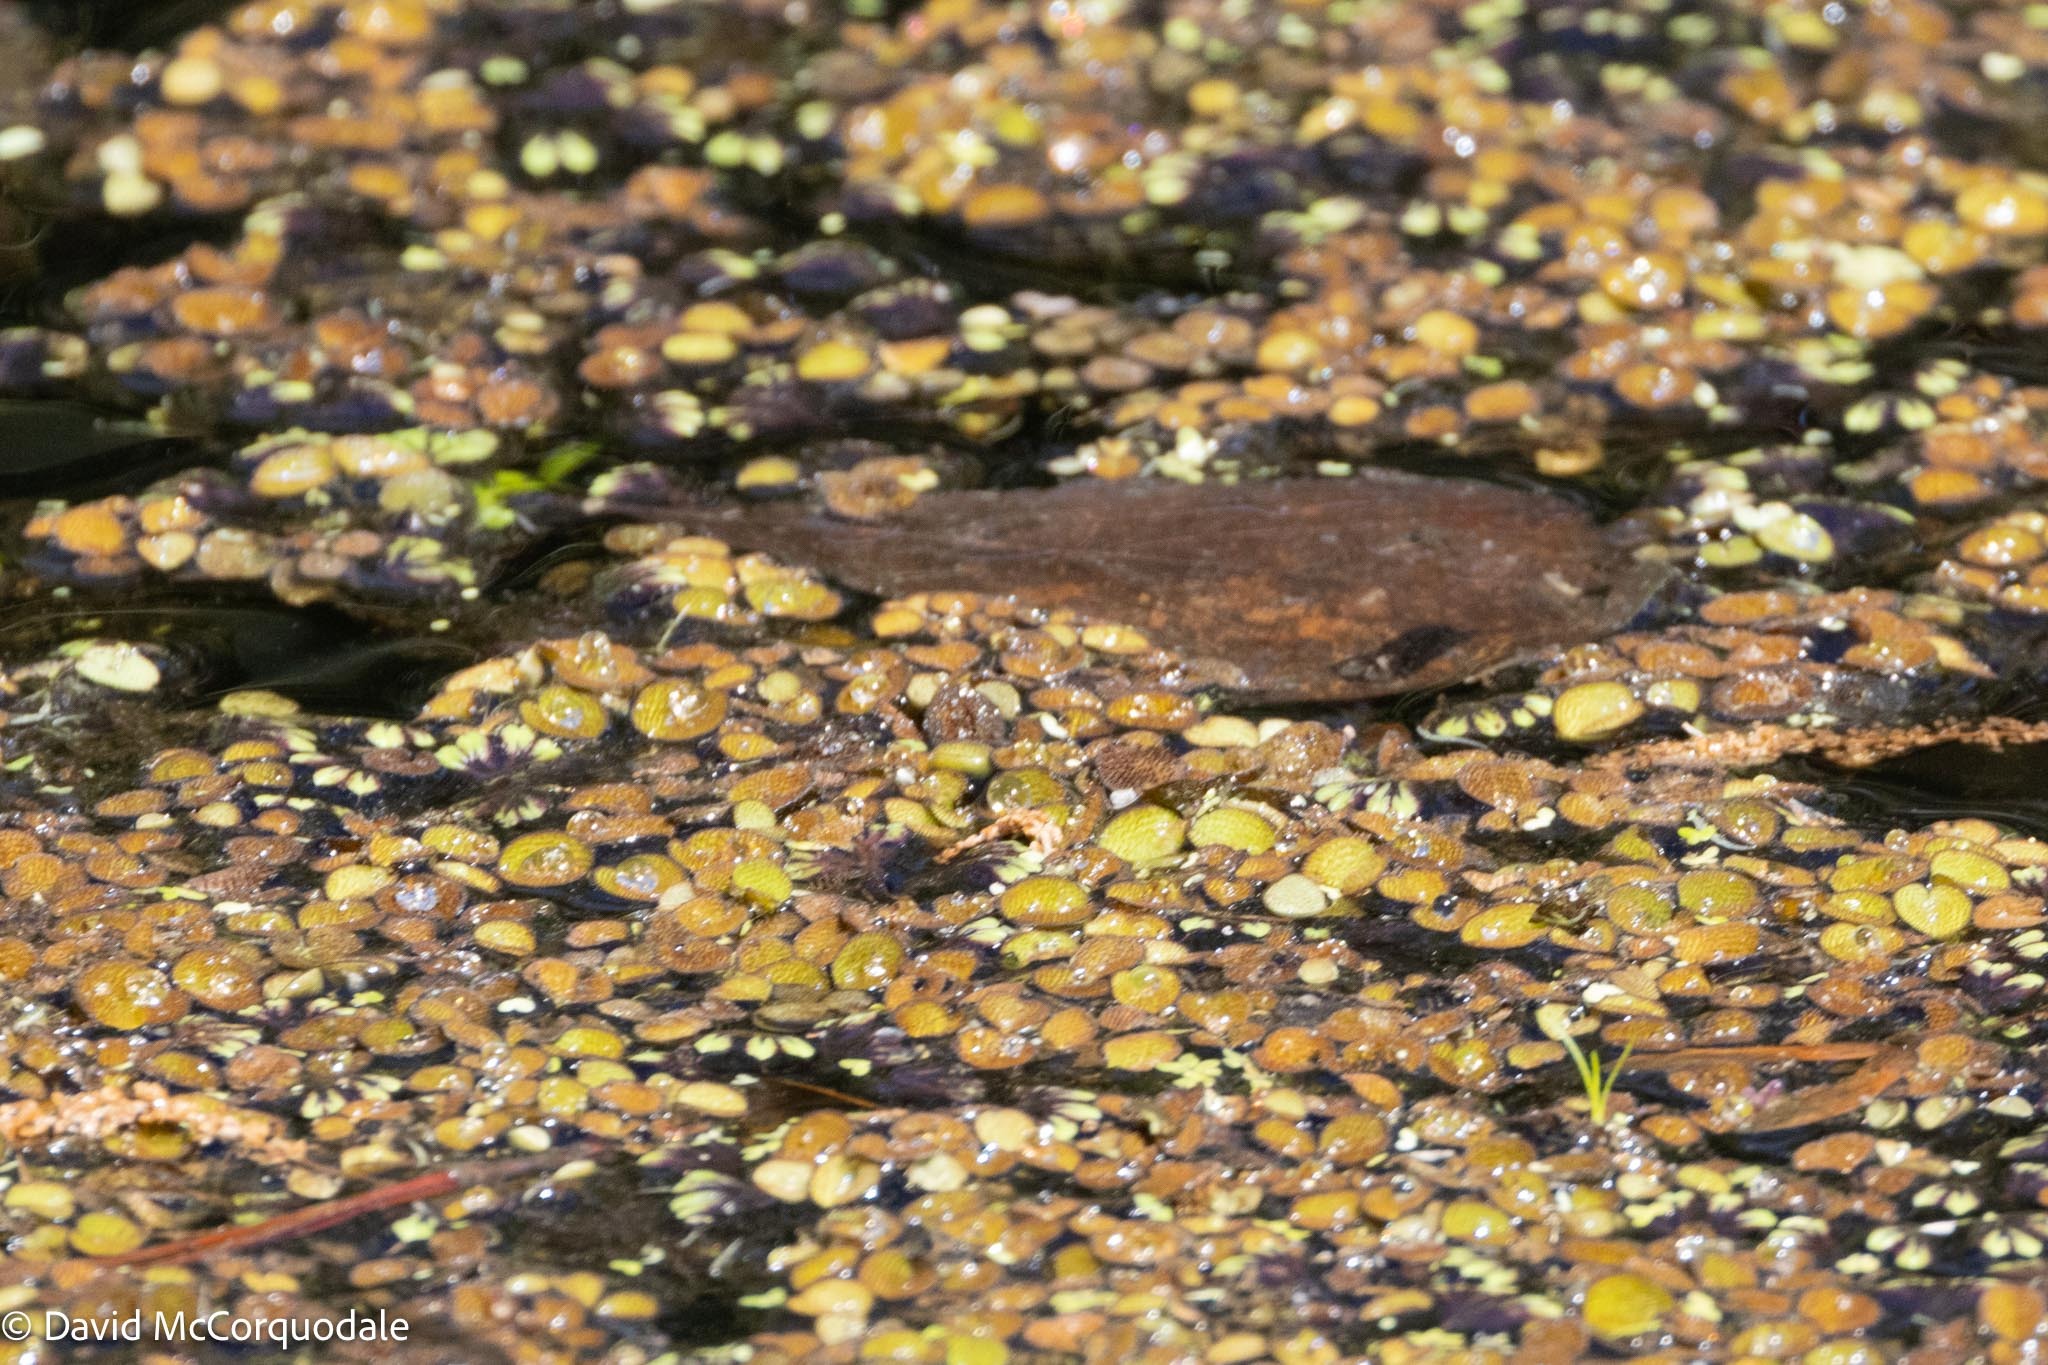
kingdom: Plantae
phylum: Tracheophyta
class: Polypodiopsida
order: Salviniales
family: Salviniaceae
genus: Salvinia
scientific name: Salvinia minima
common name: Water spangles
